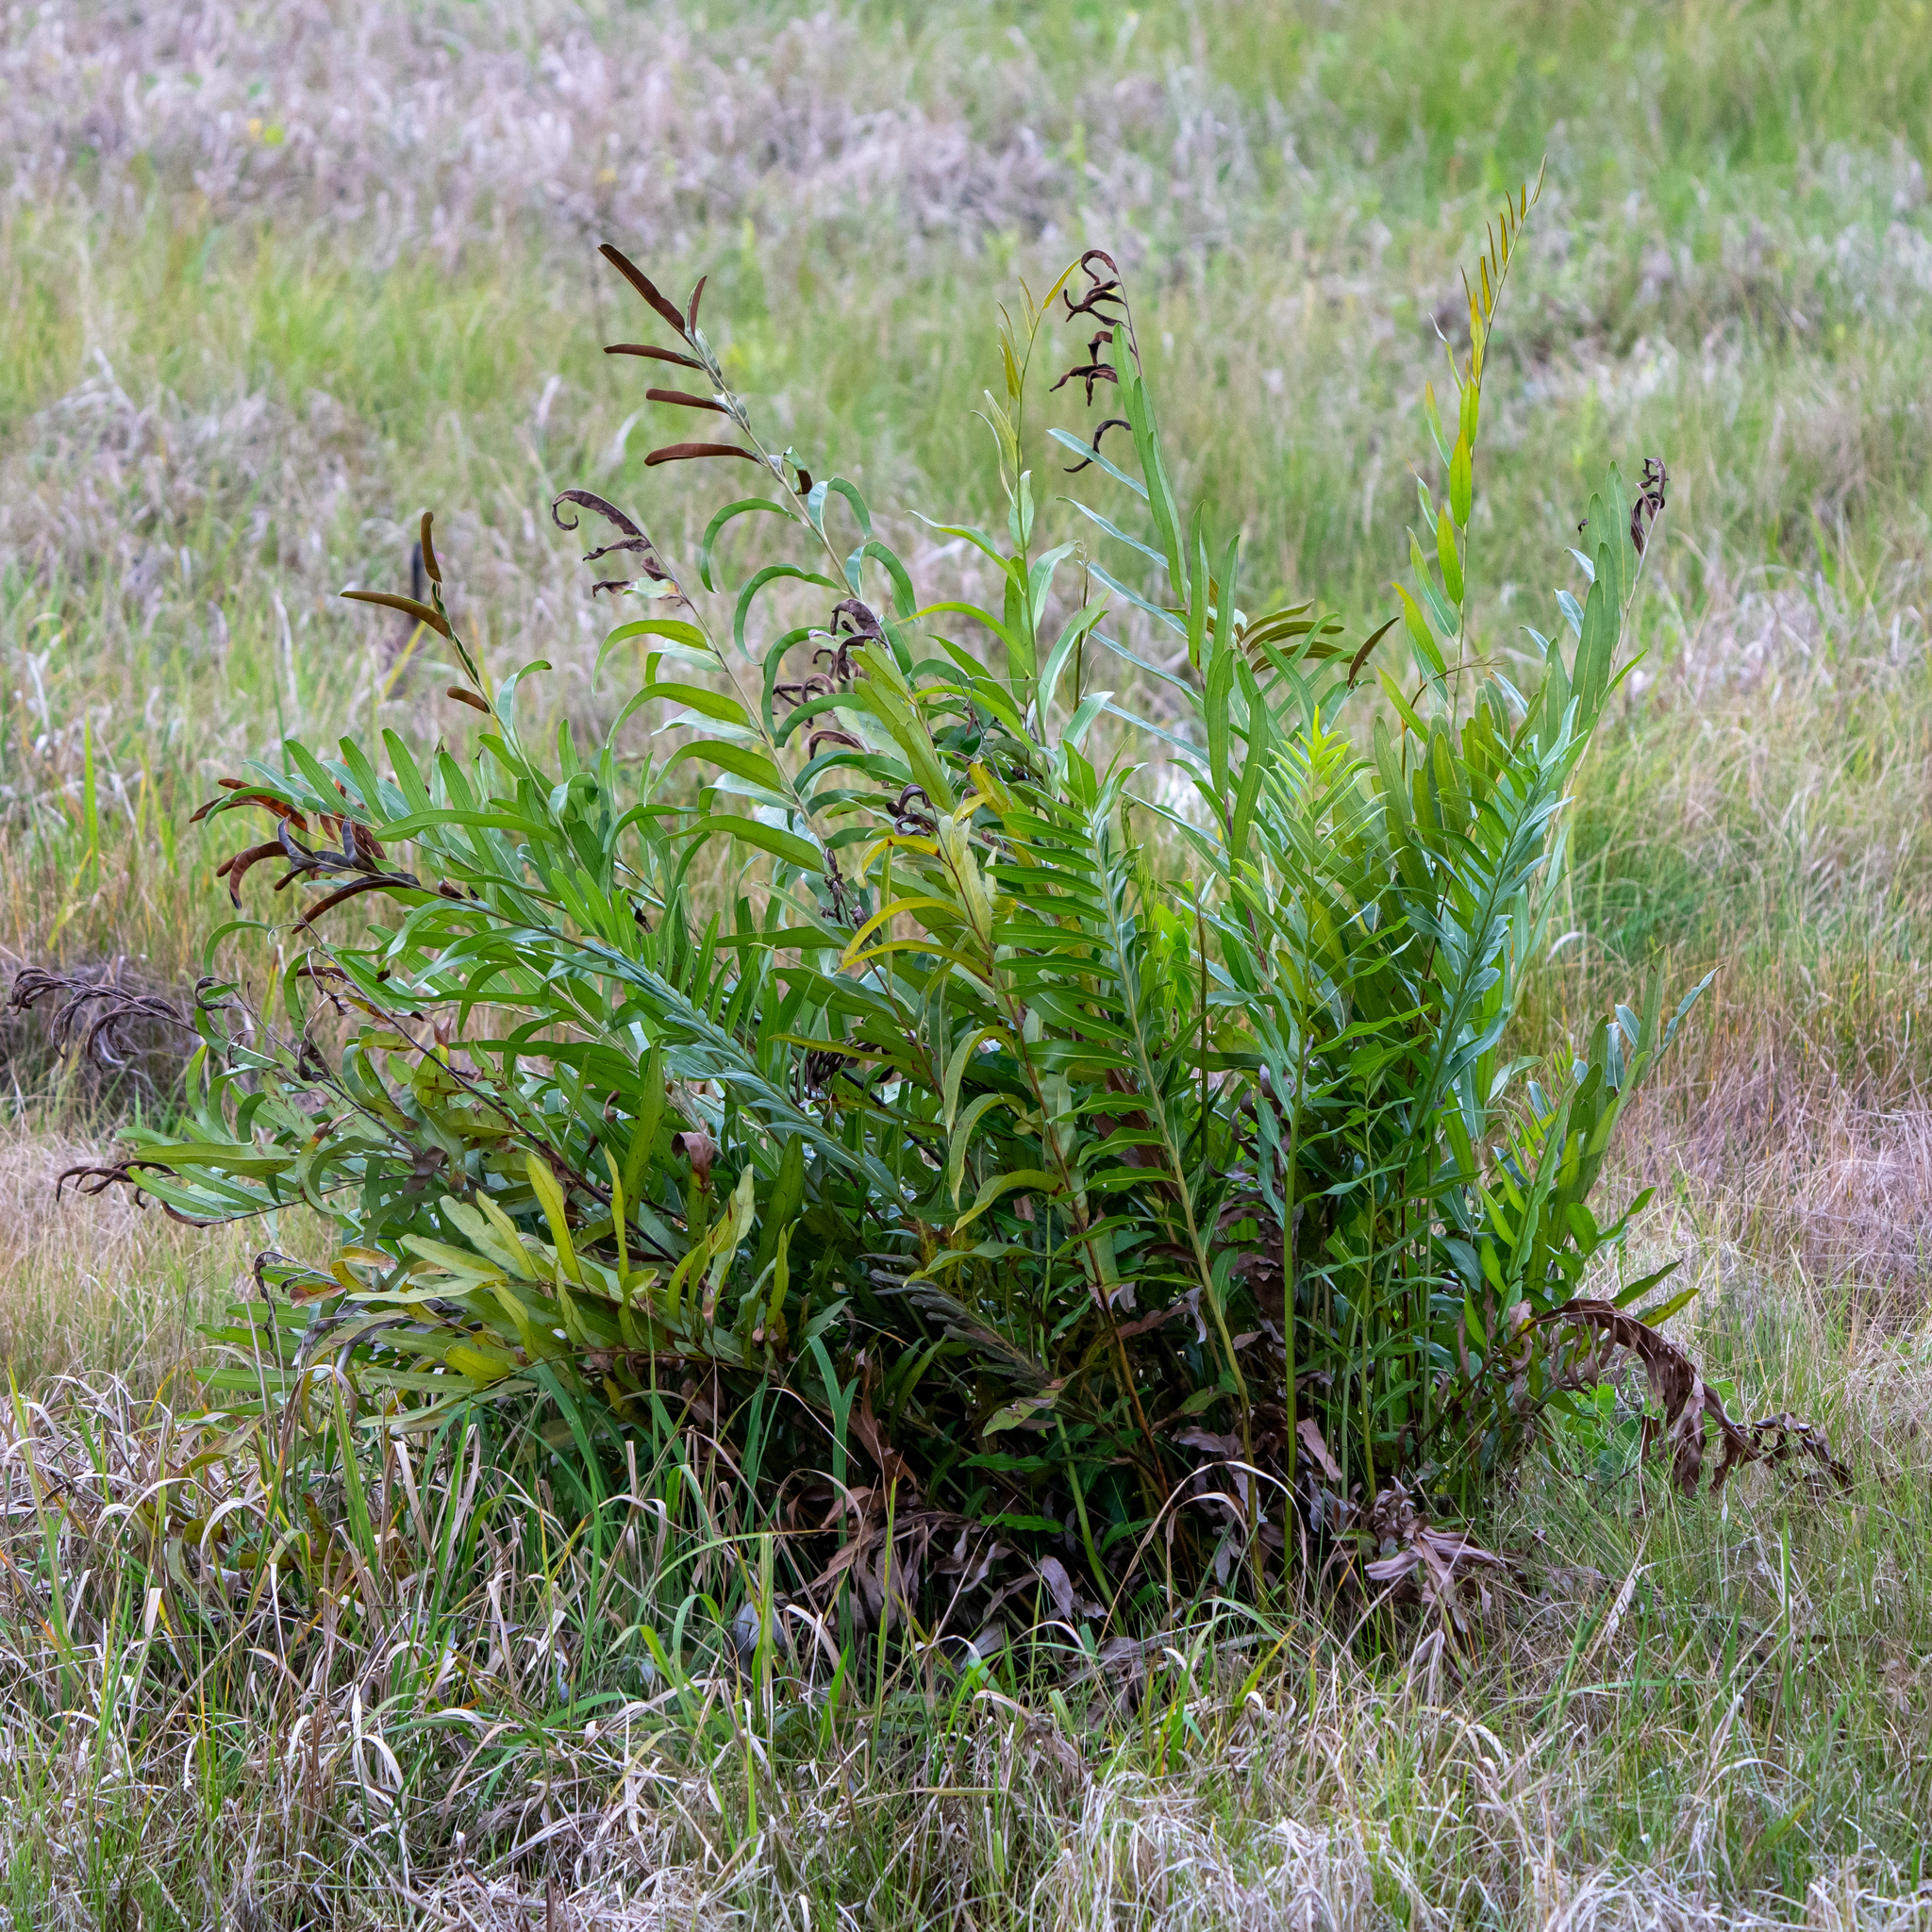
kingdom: Plantae
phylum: Tracheophyta
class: Polypodiopsida
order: Polypodiales
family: Pteridaceae
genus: Acrostichum
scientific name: Acrostichum aureum
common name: Leather fern
